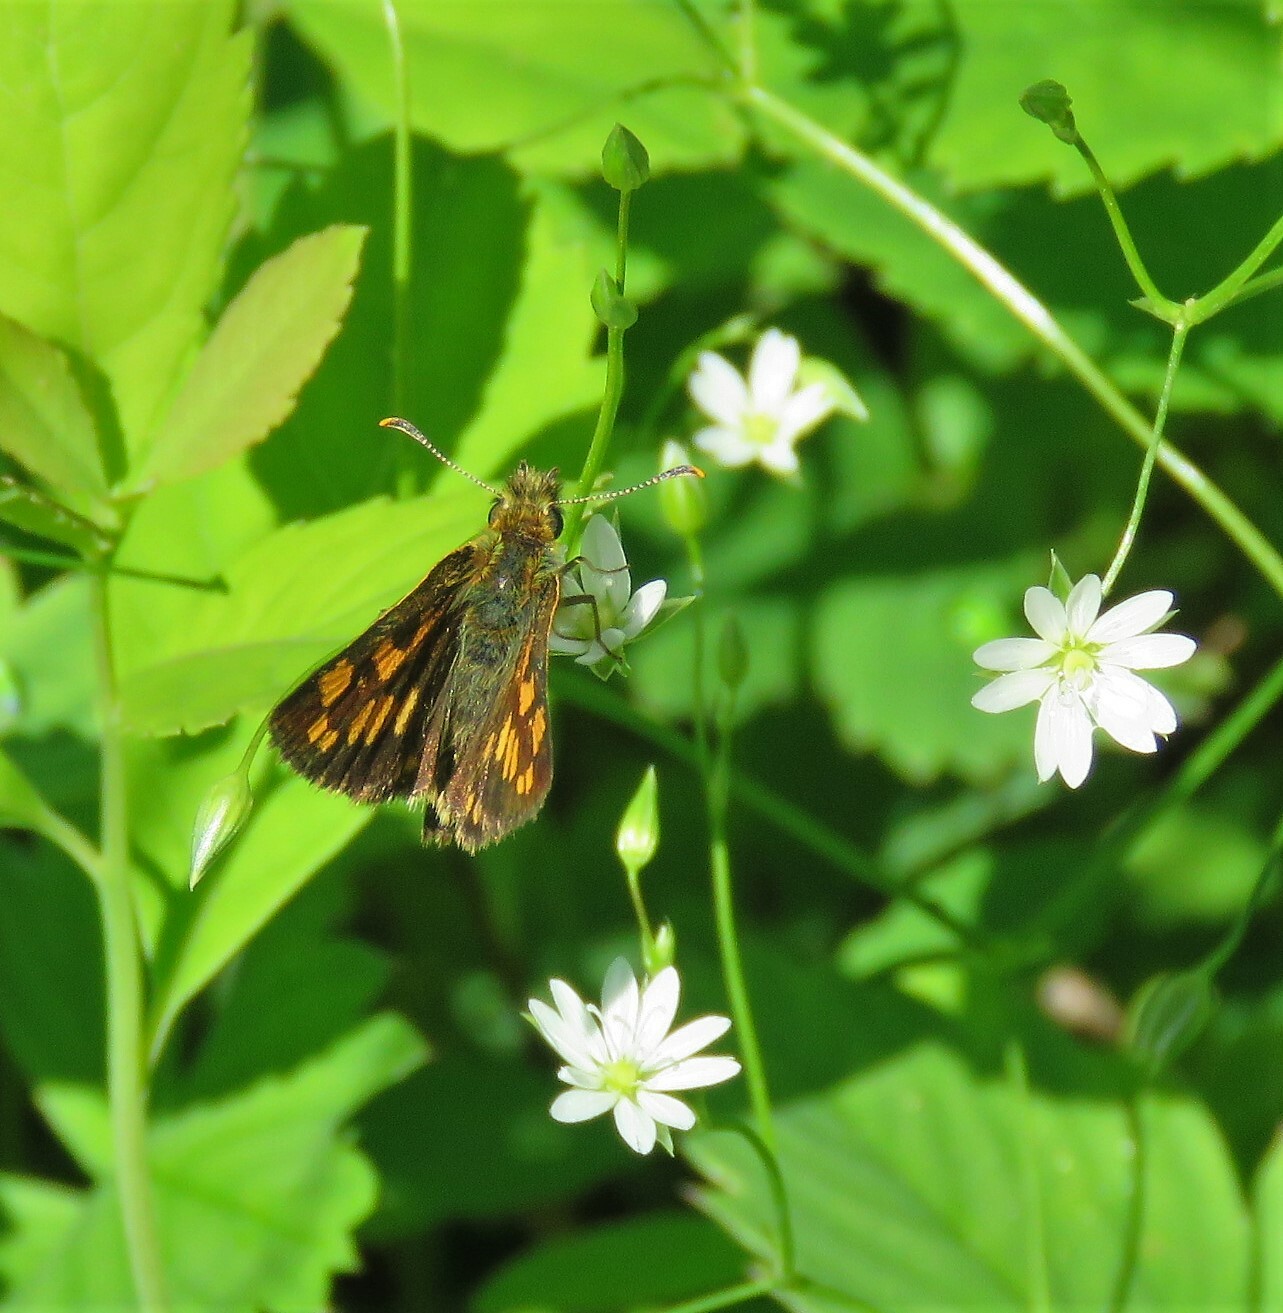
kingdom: Animalia
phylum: Arthropoda
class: Insecta
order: Lepidoptera
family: Hesperiidae
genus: Carterocephalus
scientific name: Carterocephalus mandan
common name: Arctic skipperling
